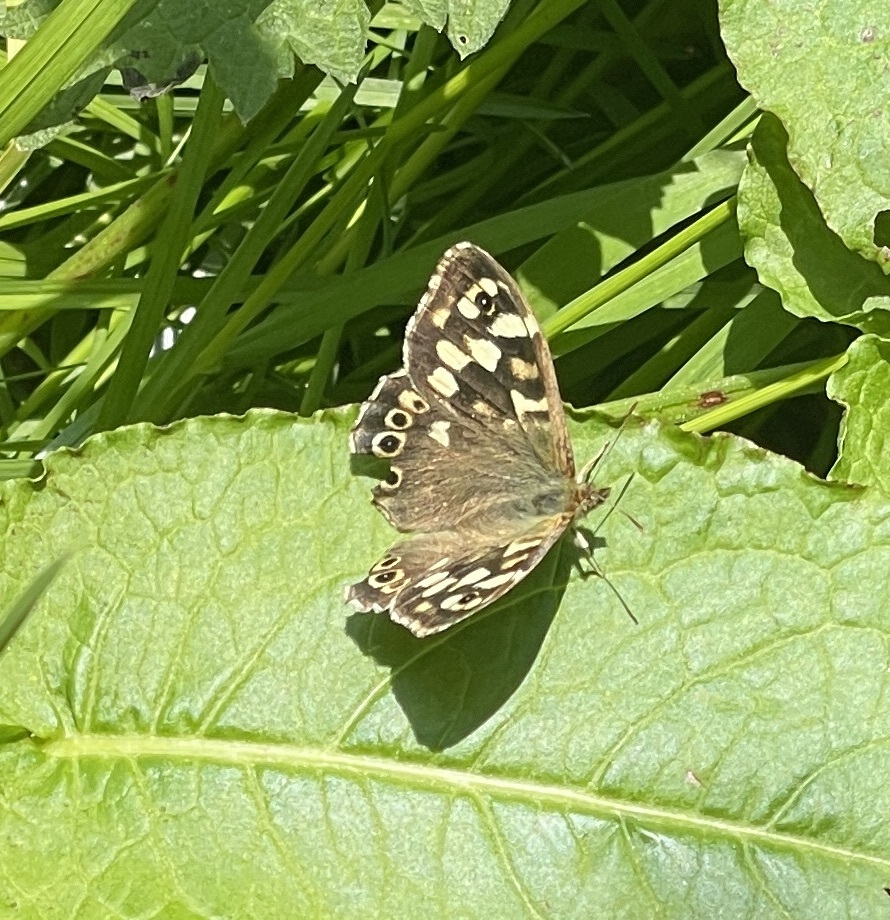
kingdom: Animalia
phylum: Arthropoda
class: Insecta
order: Lepidoptera
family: Nymphalidae
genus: Pararge
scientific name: Pararge aegeria
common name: Speckled wood
